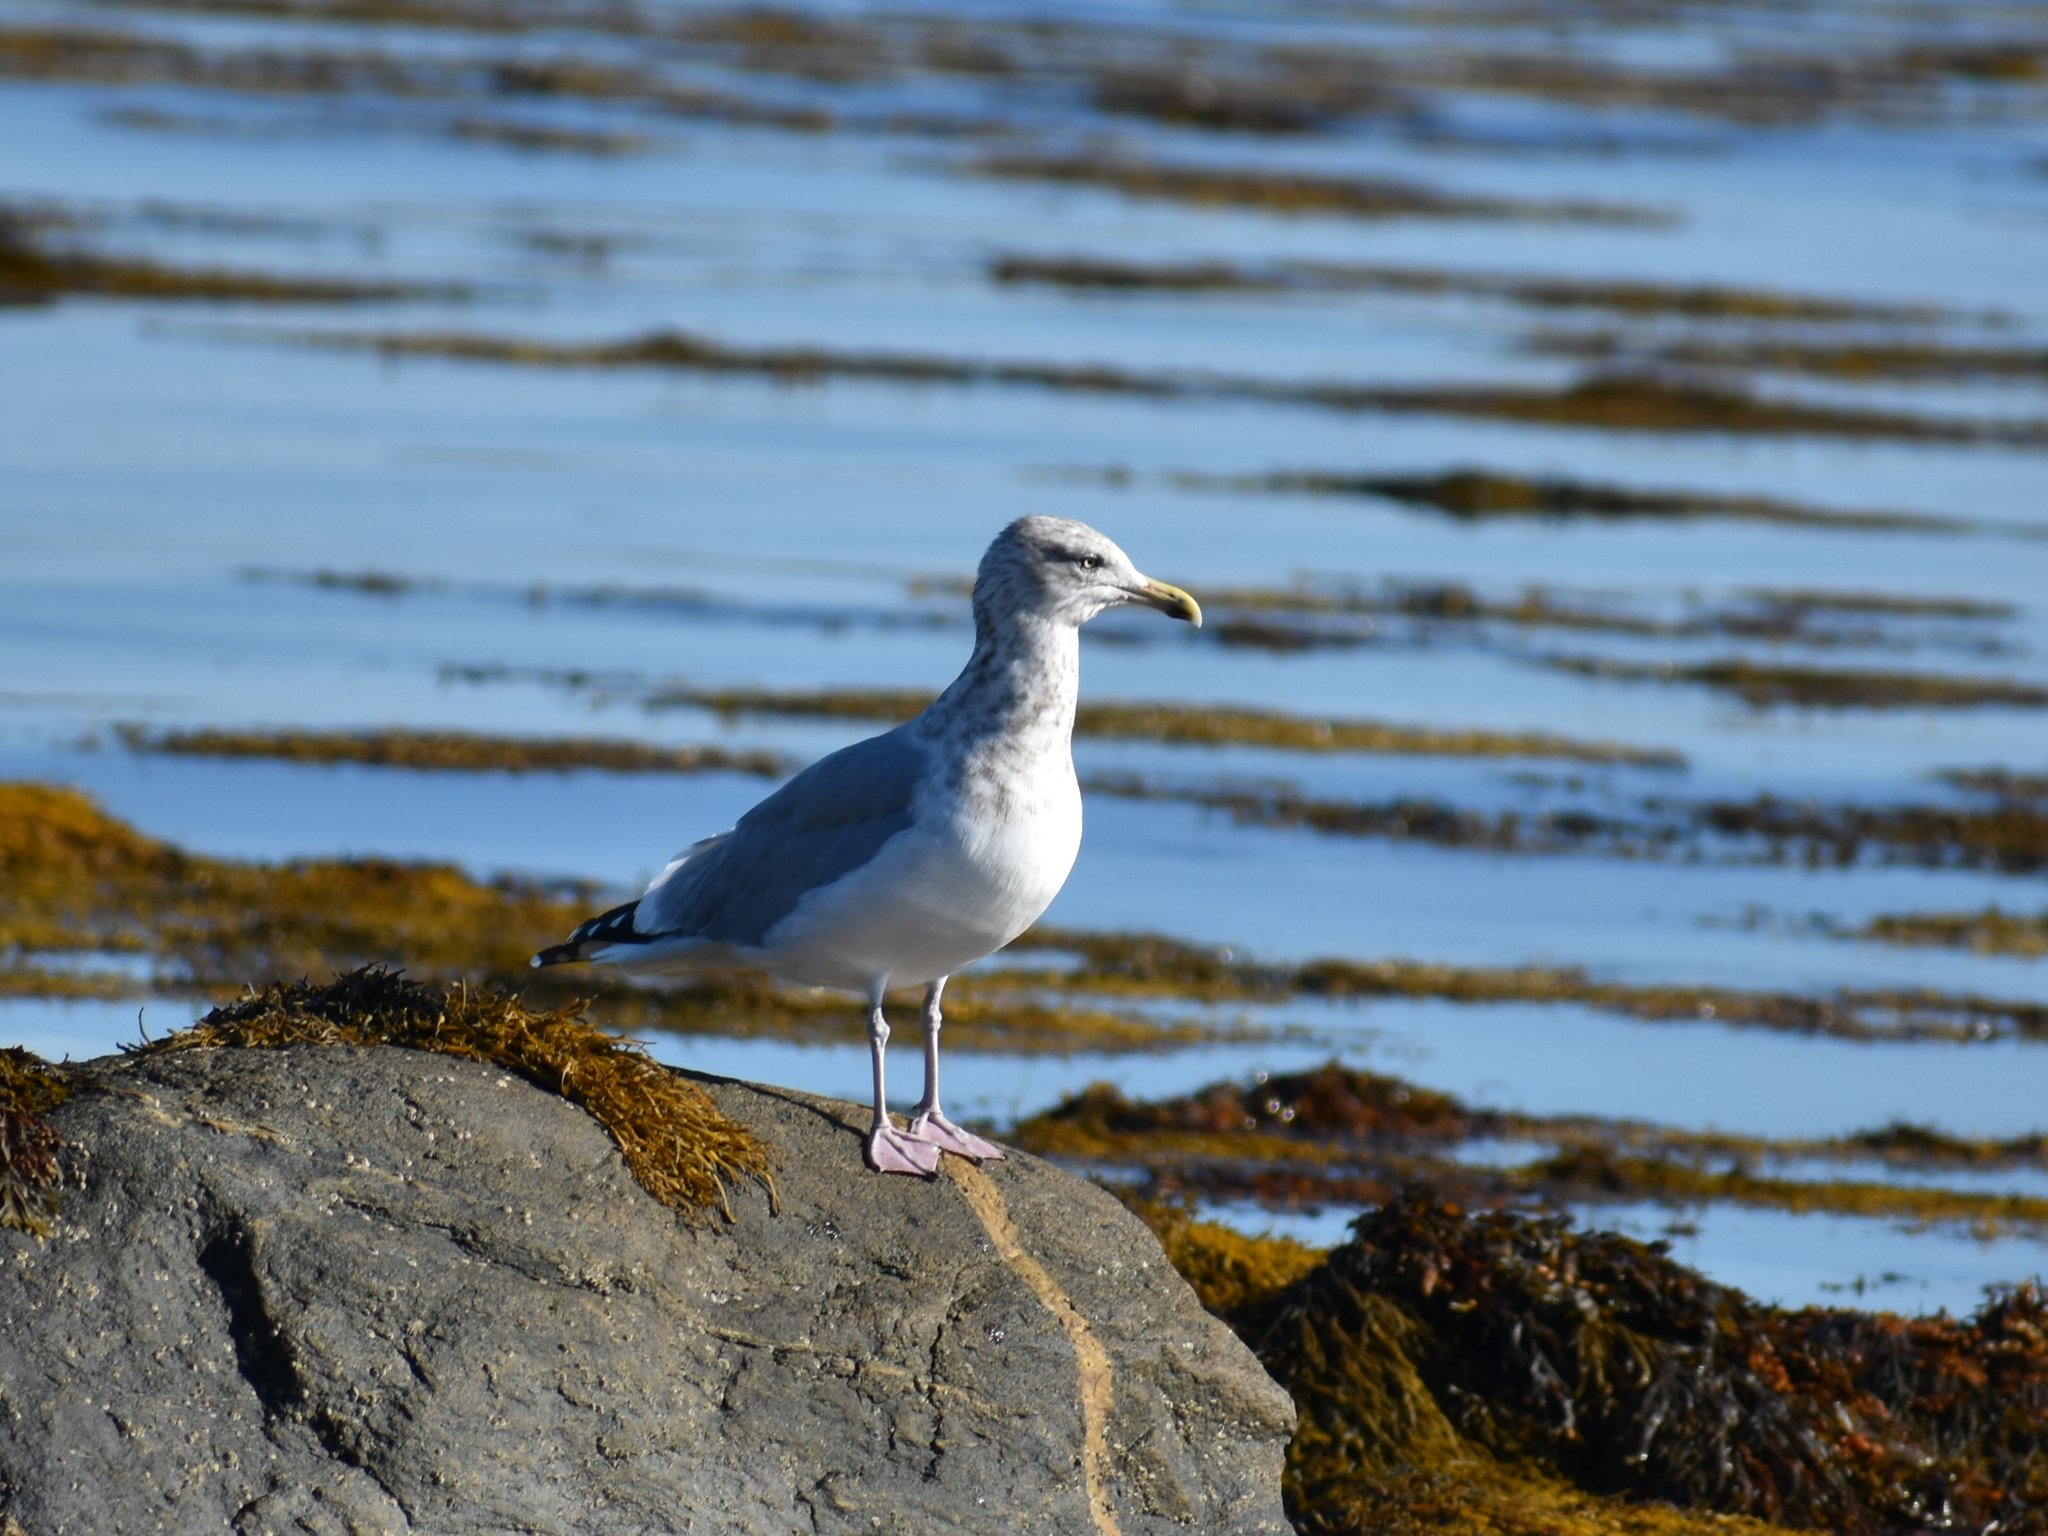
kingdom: Animalia
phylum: Chordata
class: Aves
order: Charadriiformes
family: Laridae
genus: Larus
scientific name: Larus argentatus
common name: Herring gull
